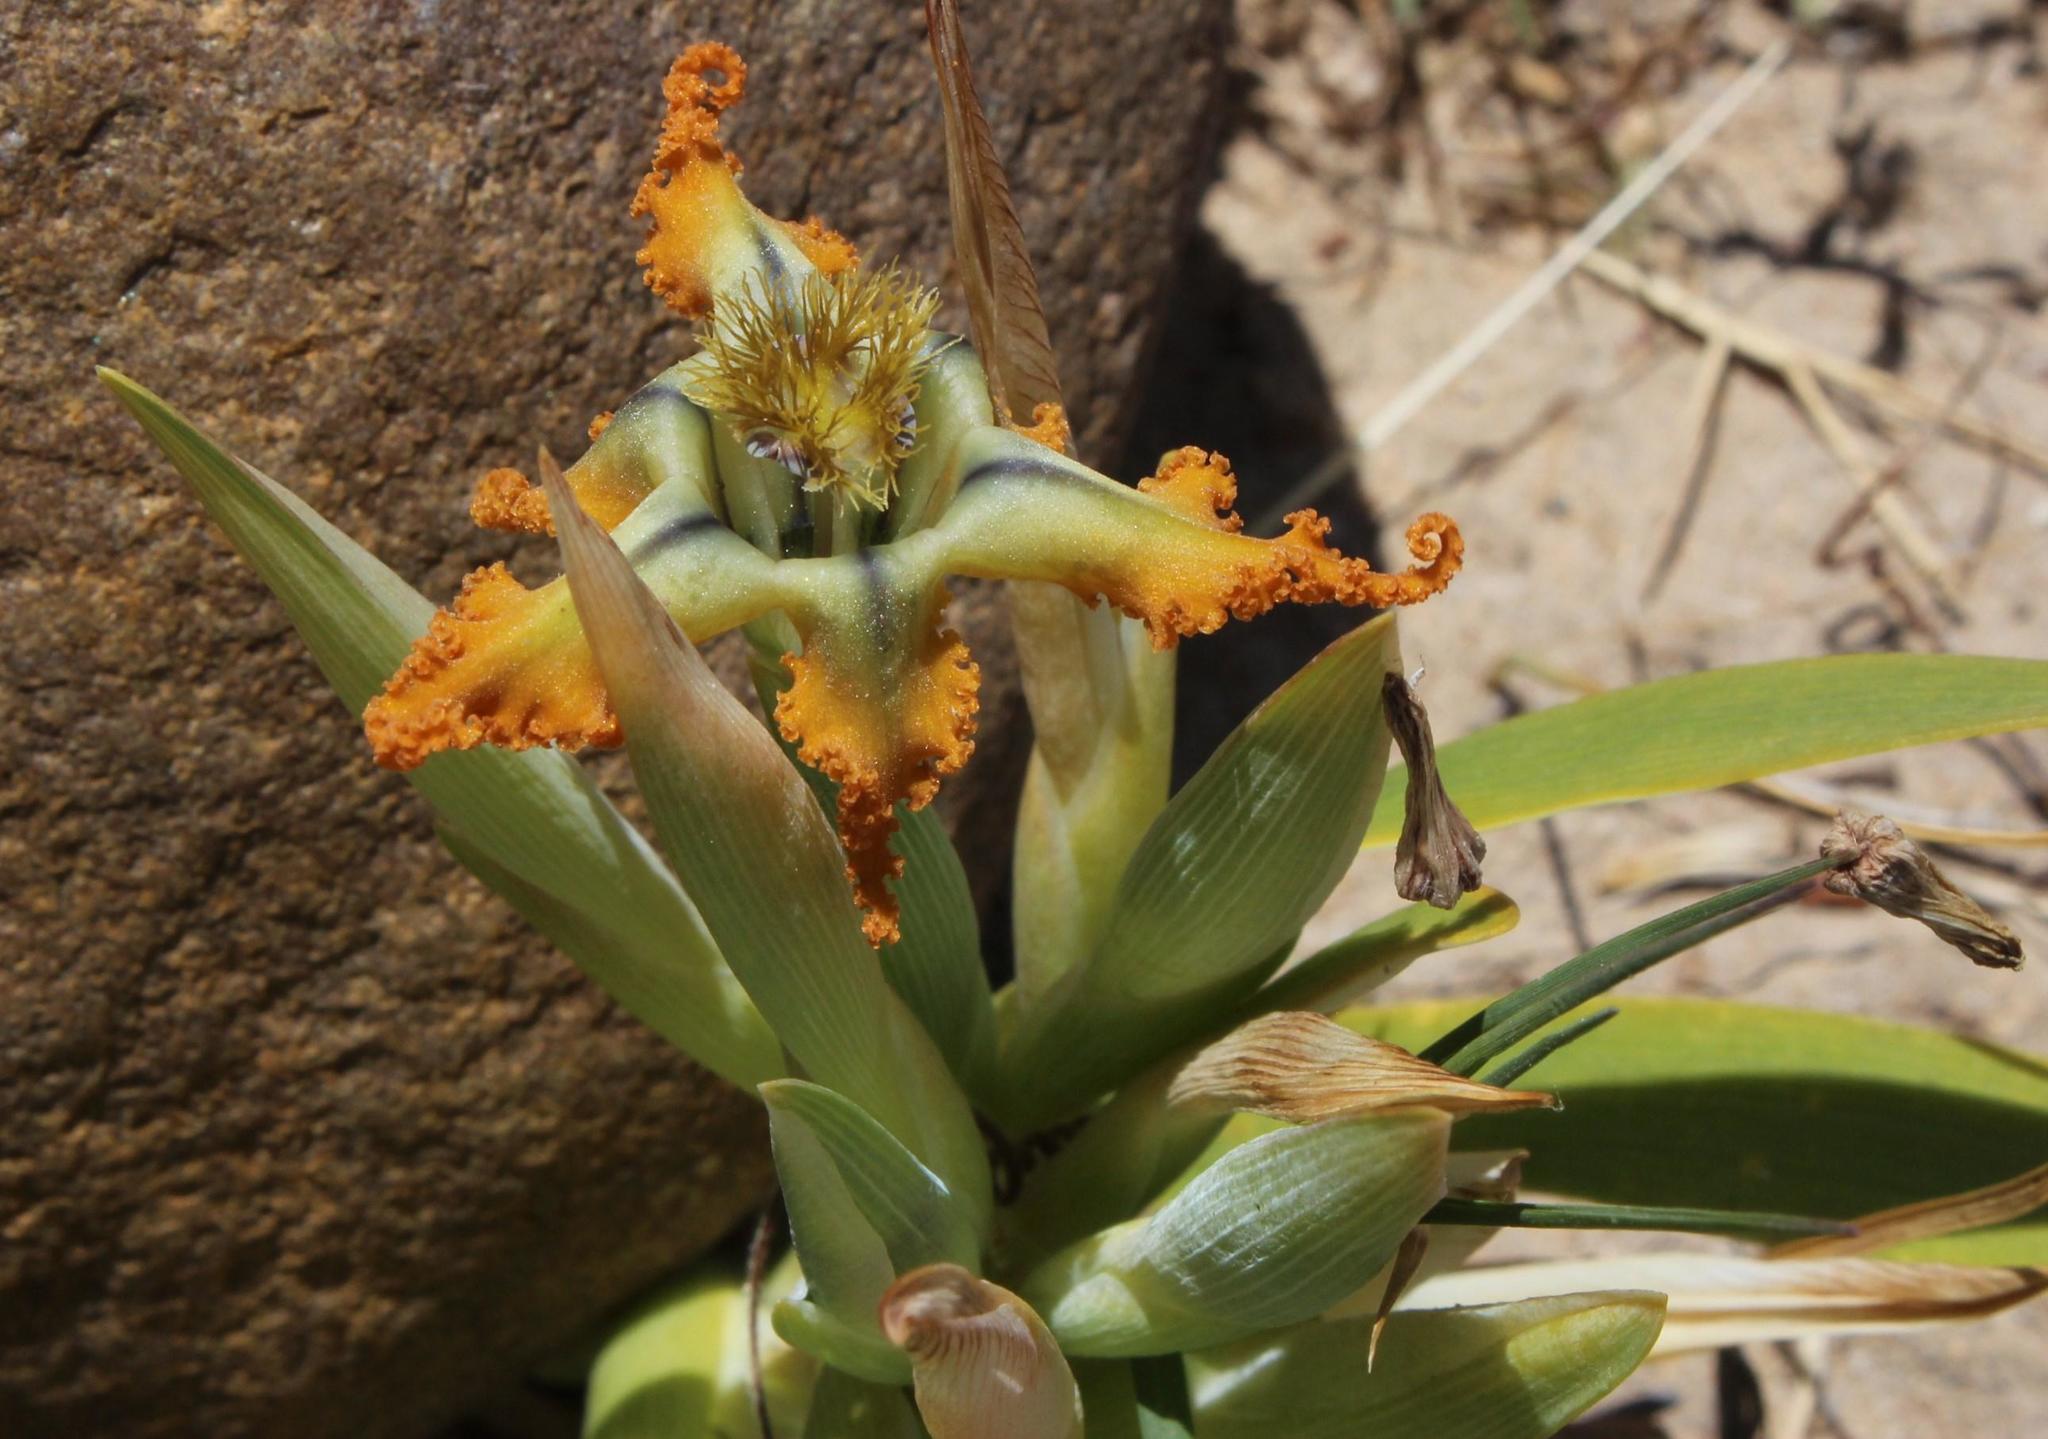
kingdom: Plantae
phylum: Tracheophyta
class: Liliopsida
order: Asparagales
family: Iridaceae
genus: Ferraria
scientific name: Ferraria variabilis
